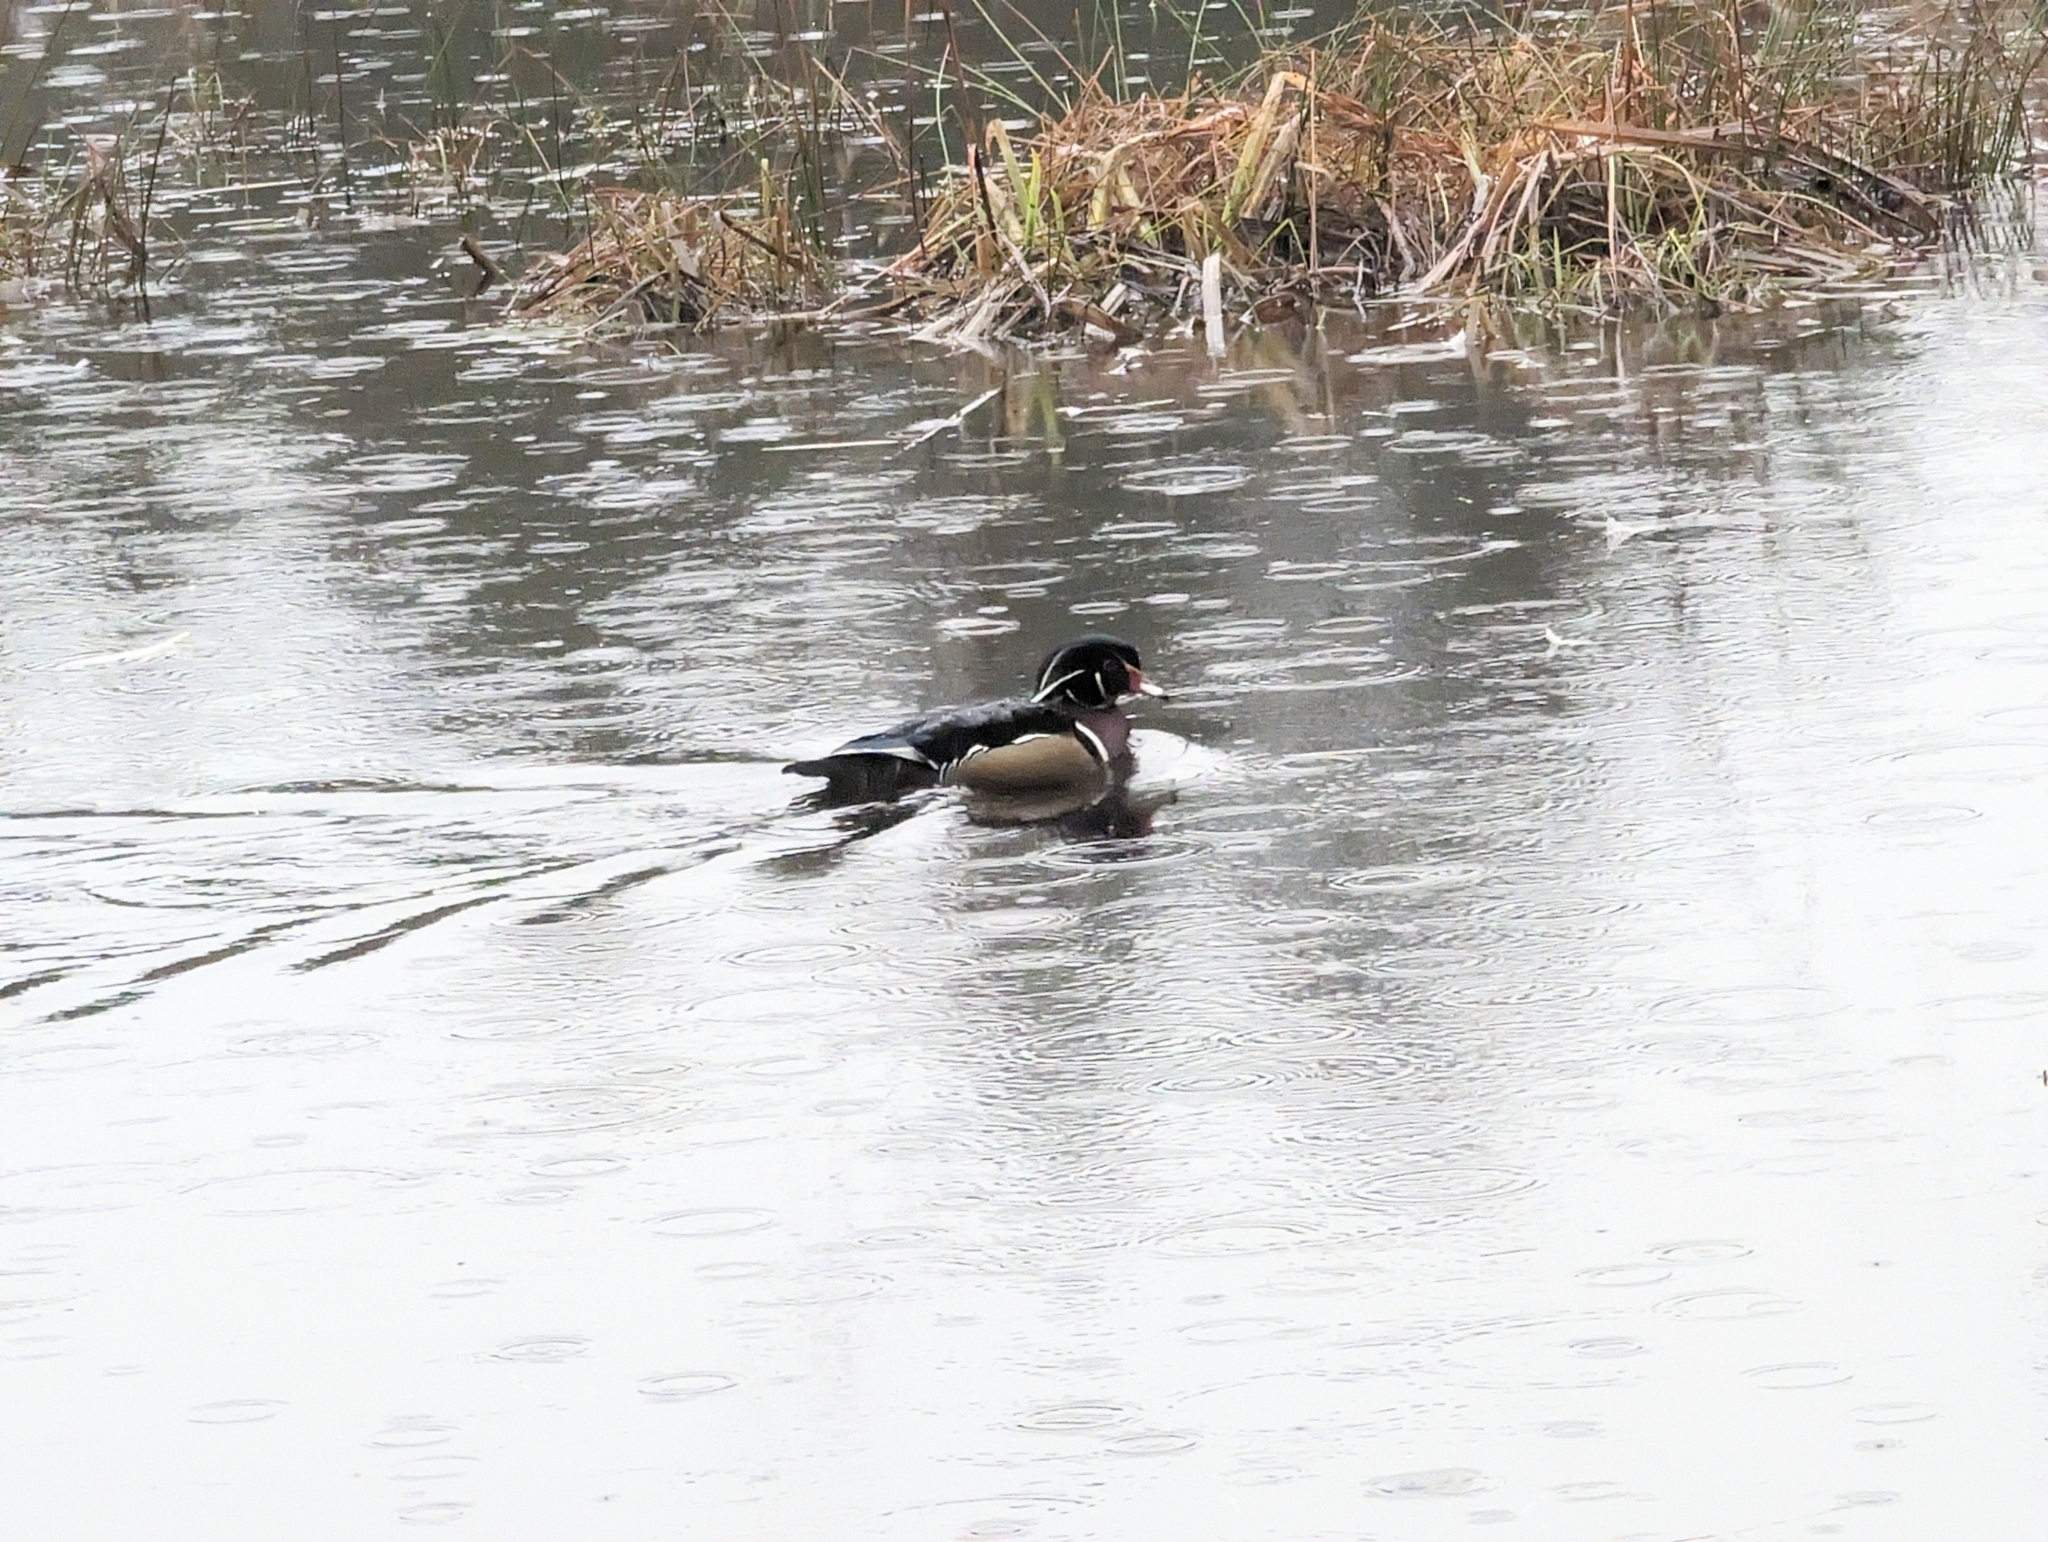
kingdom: Animalia
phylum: Chordata
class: Aves
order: Anseriformes
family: Anatidae
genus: Aix
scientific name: Aix sponsa
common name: Wood duck
